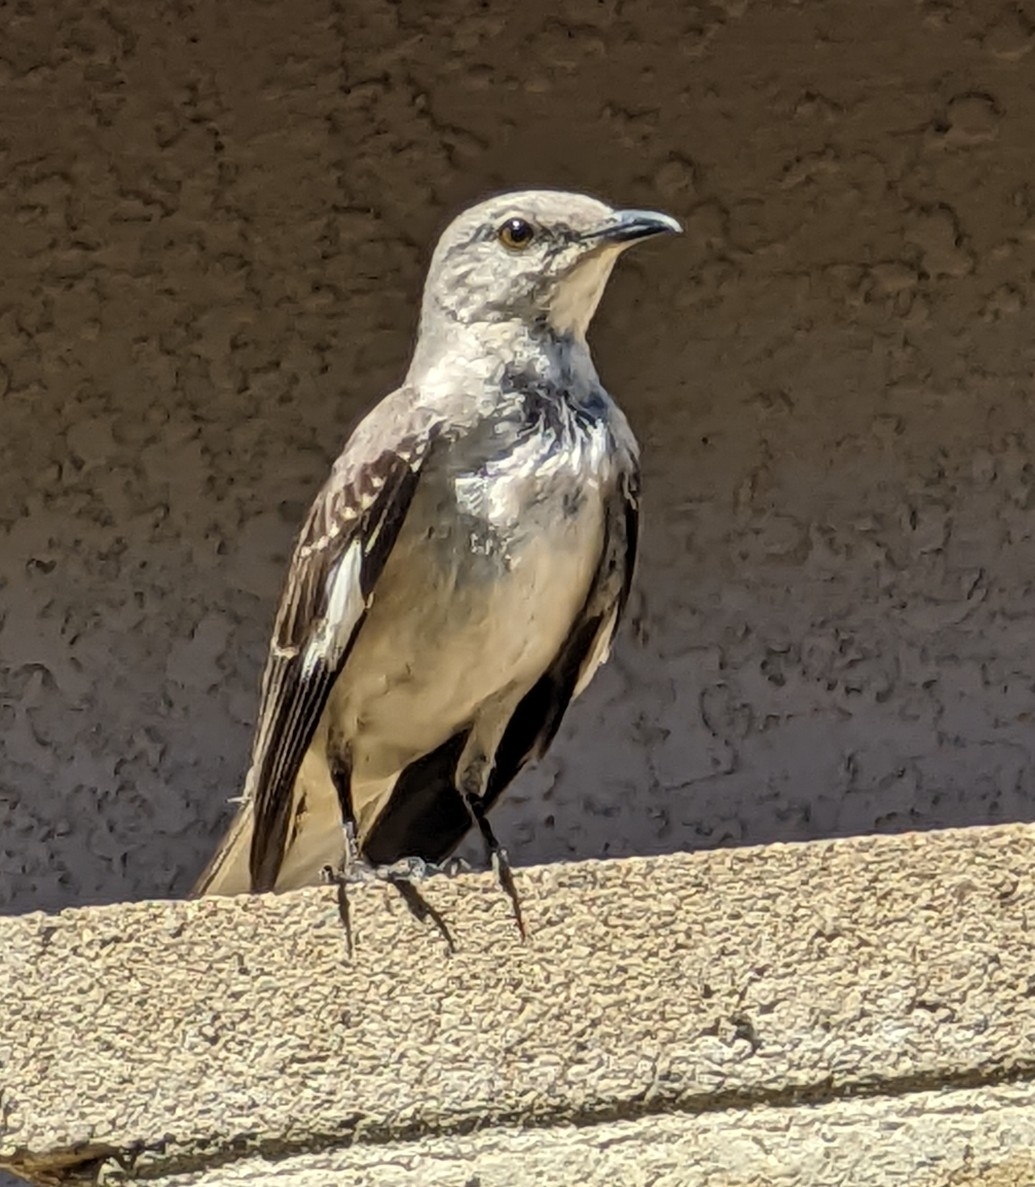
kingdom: Animalia
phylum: Chordata
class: Aves
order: Passeriformes
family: Mimidae
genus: Mimus
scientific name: Mimus polyglottos
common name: Northern mockingbird
